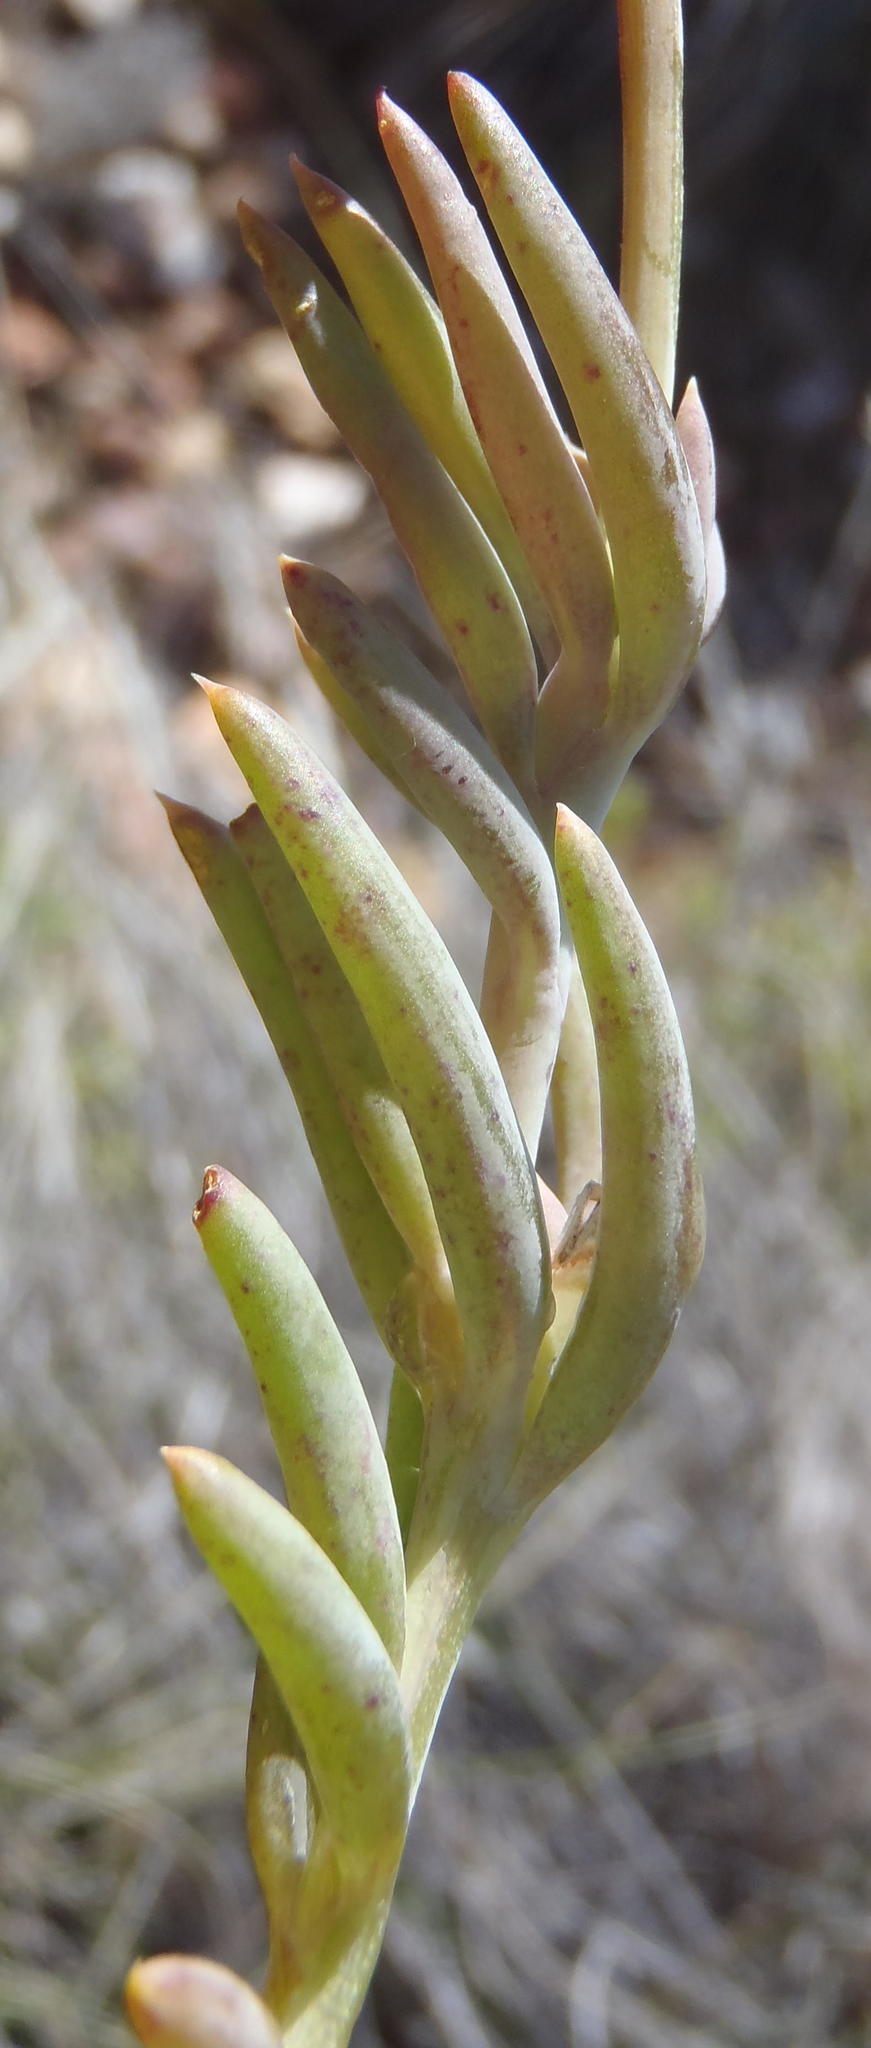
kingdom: Plantae
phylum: Tracheophyta
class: Magnoliopsida
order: Asterales
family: Asteraceae
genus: Crassothonna
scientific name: Crassothonna alba
